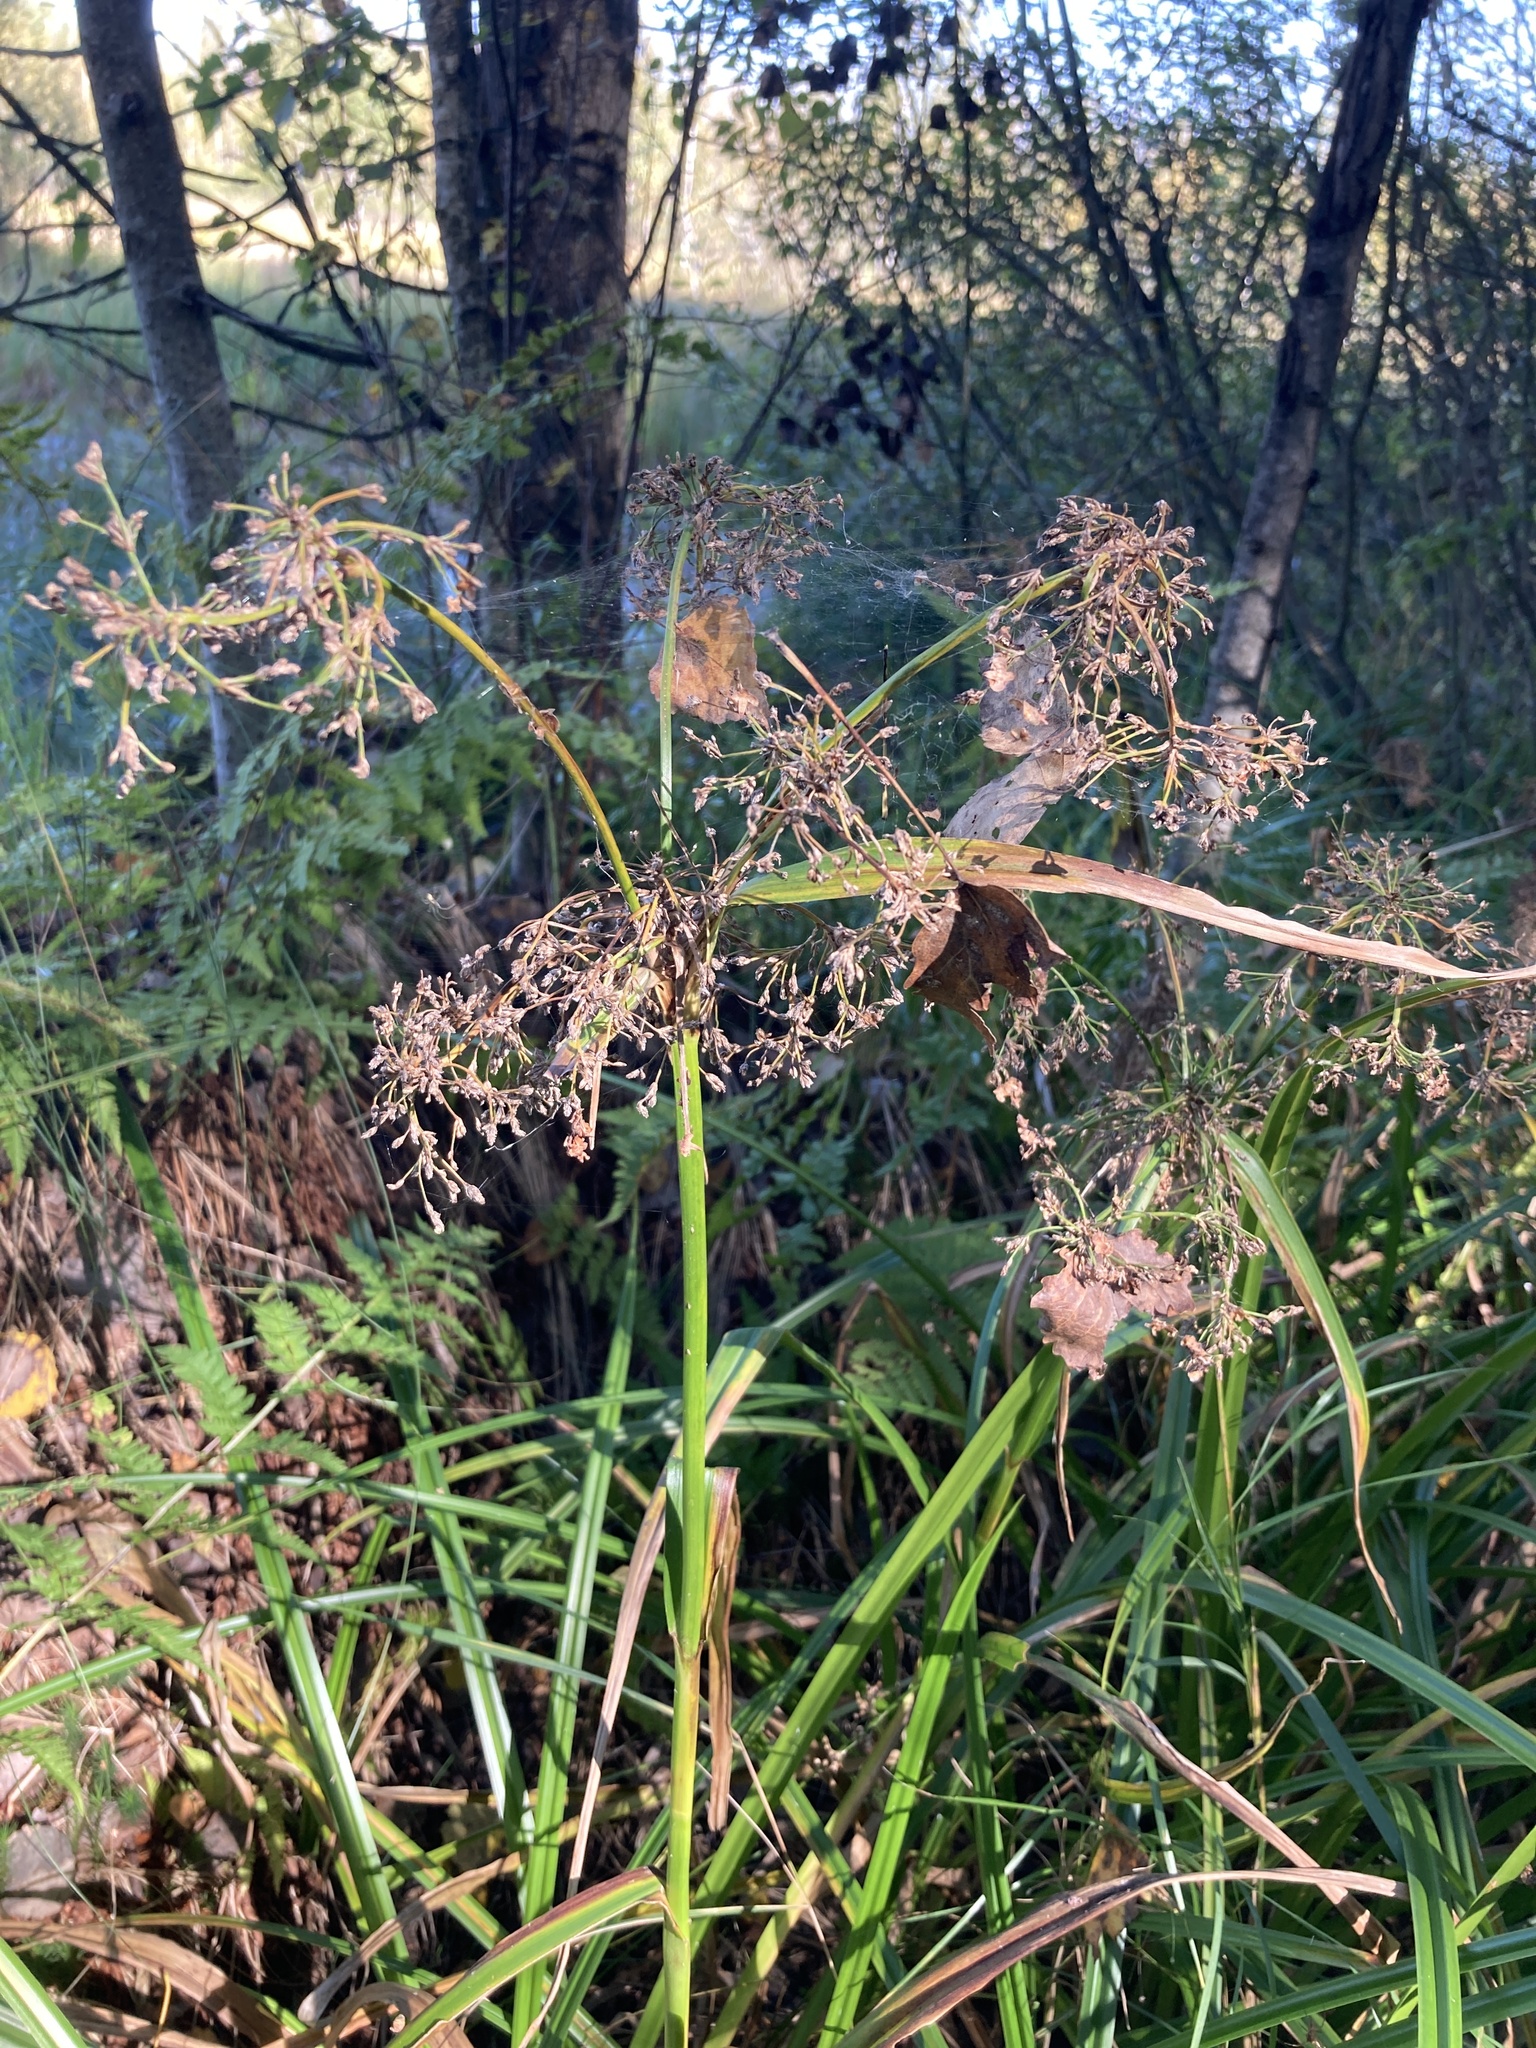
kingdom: Plantae
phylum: Tracheophyta
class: Liliopsida
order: Poales
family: Cyperaceae
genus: Scirpus
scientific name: Scirpus sylvaticus
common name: Wood club-rush
